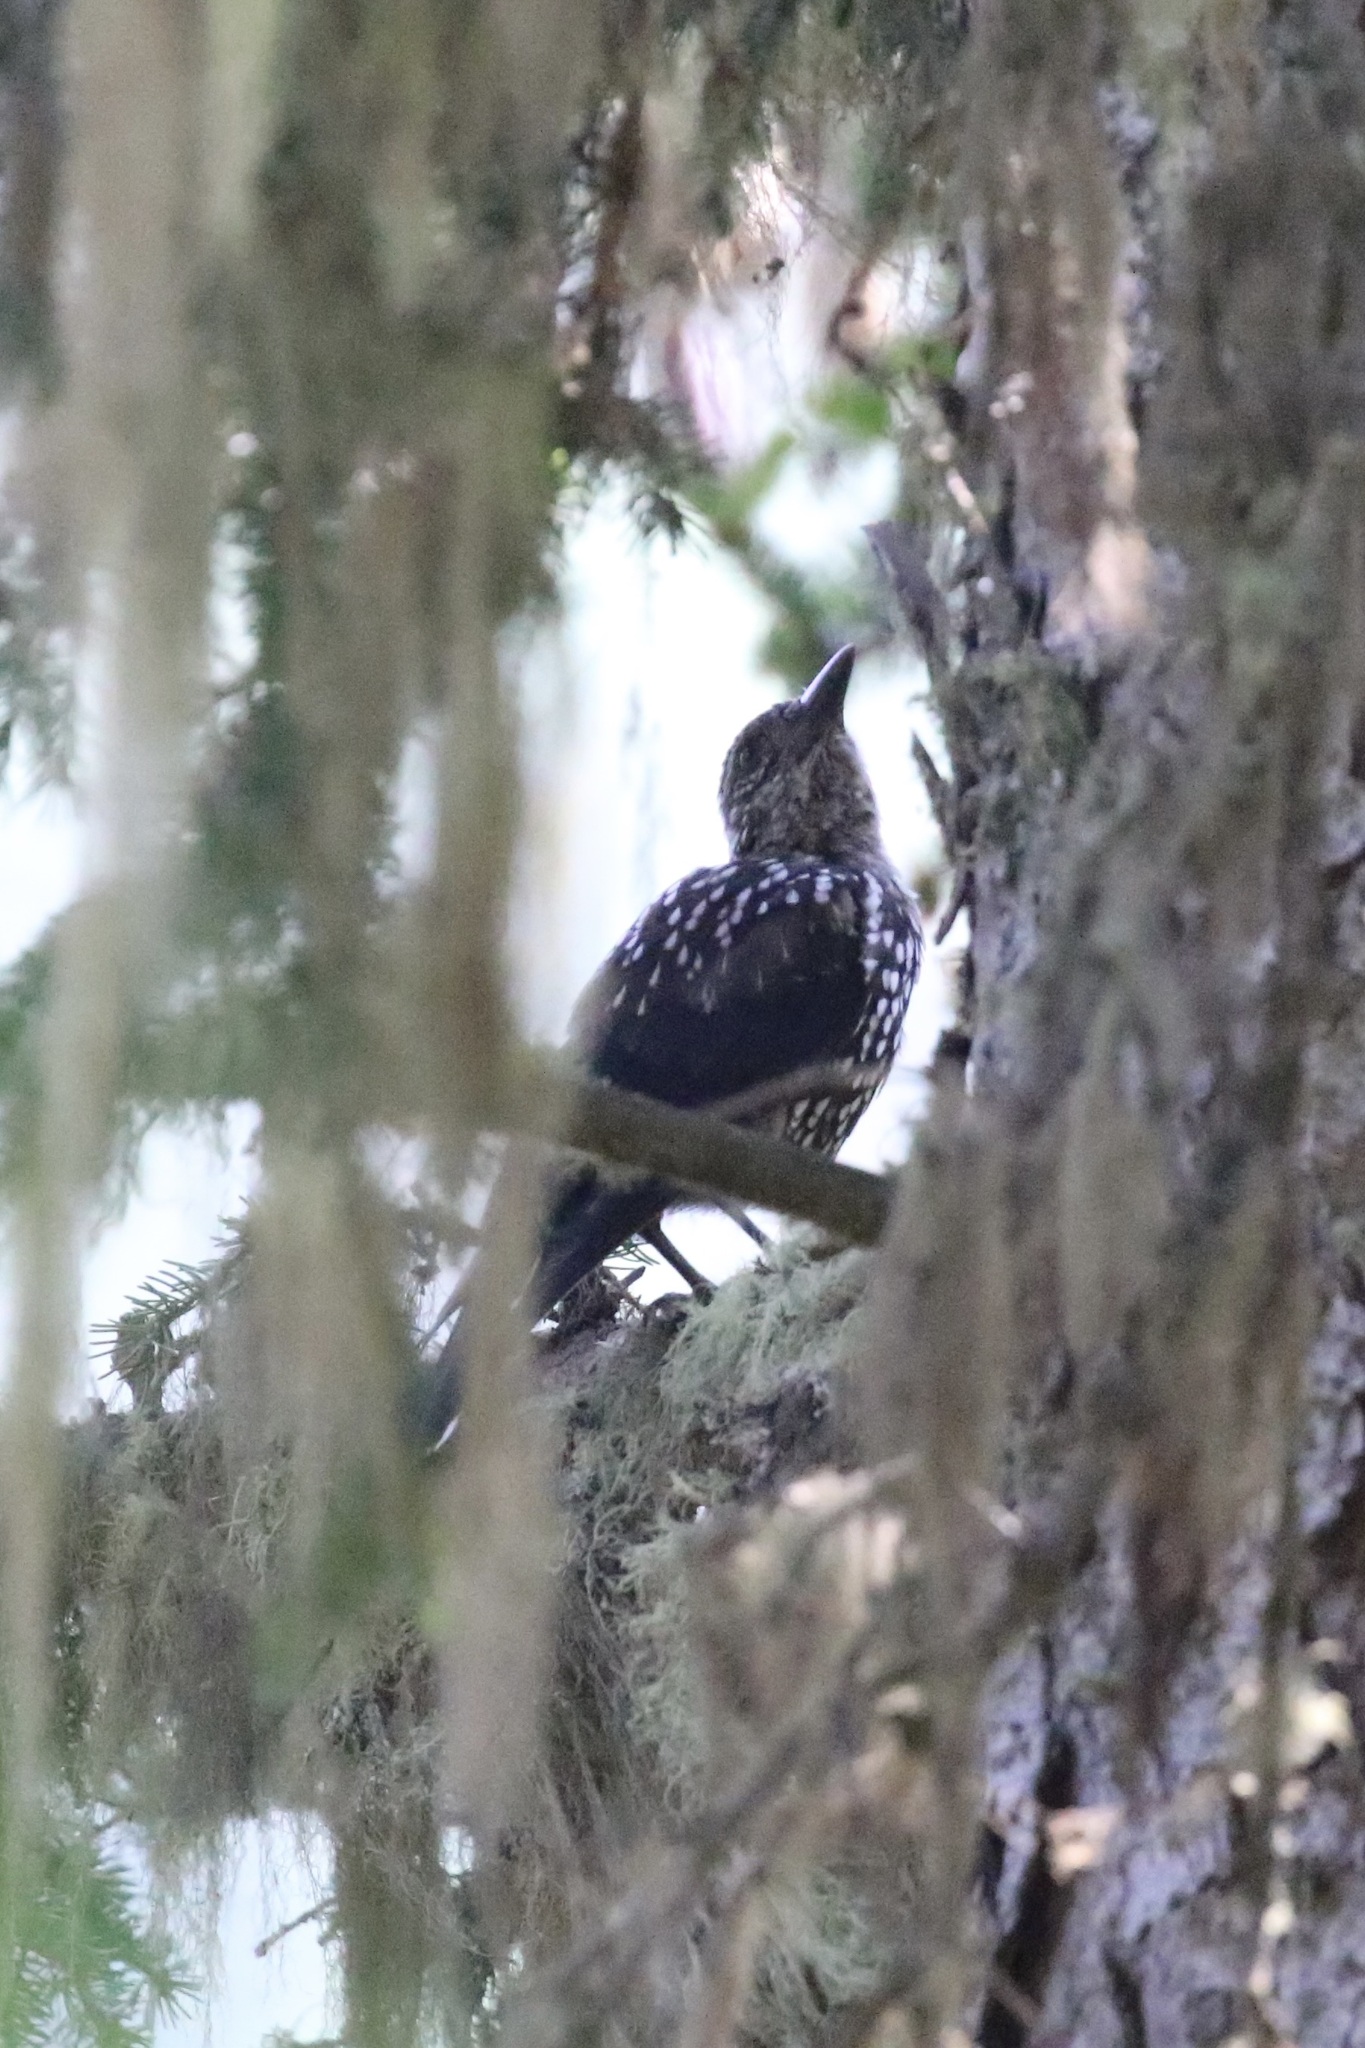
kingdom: Animalia
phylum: Chordata
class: Aves
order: Passeriformes
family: Corvidae
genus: Nucifraga
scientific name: Nucifraga caryocatactes
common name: Spotted nutcracker
